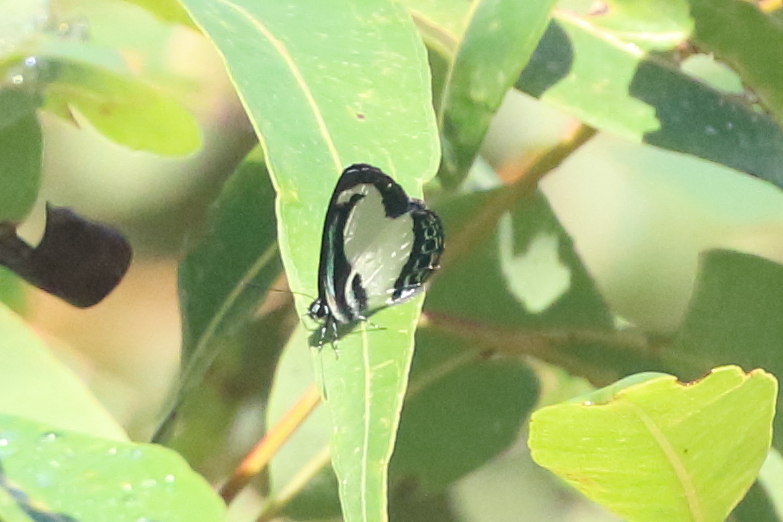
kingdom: Animalia
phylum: Arthropoda
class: Insecta
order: Lepidoptera
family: Lycaenidae
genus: Psychonotis
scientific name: Psychonotis caelius
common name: Small green banded blue
